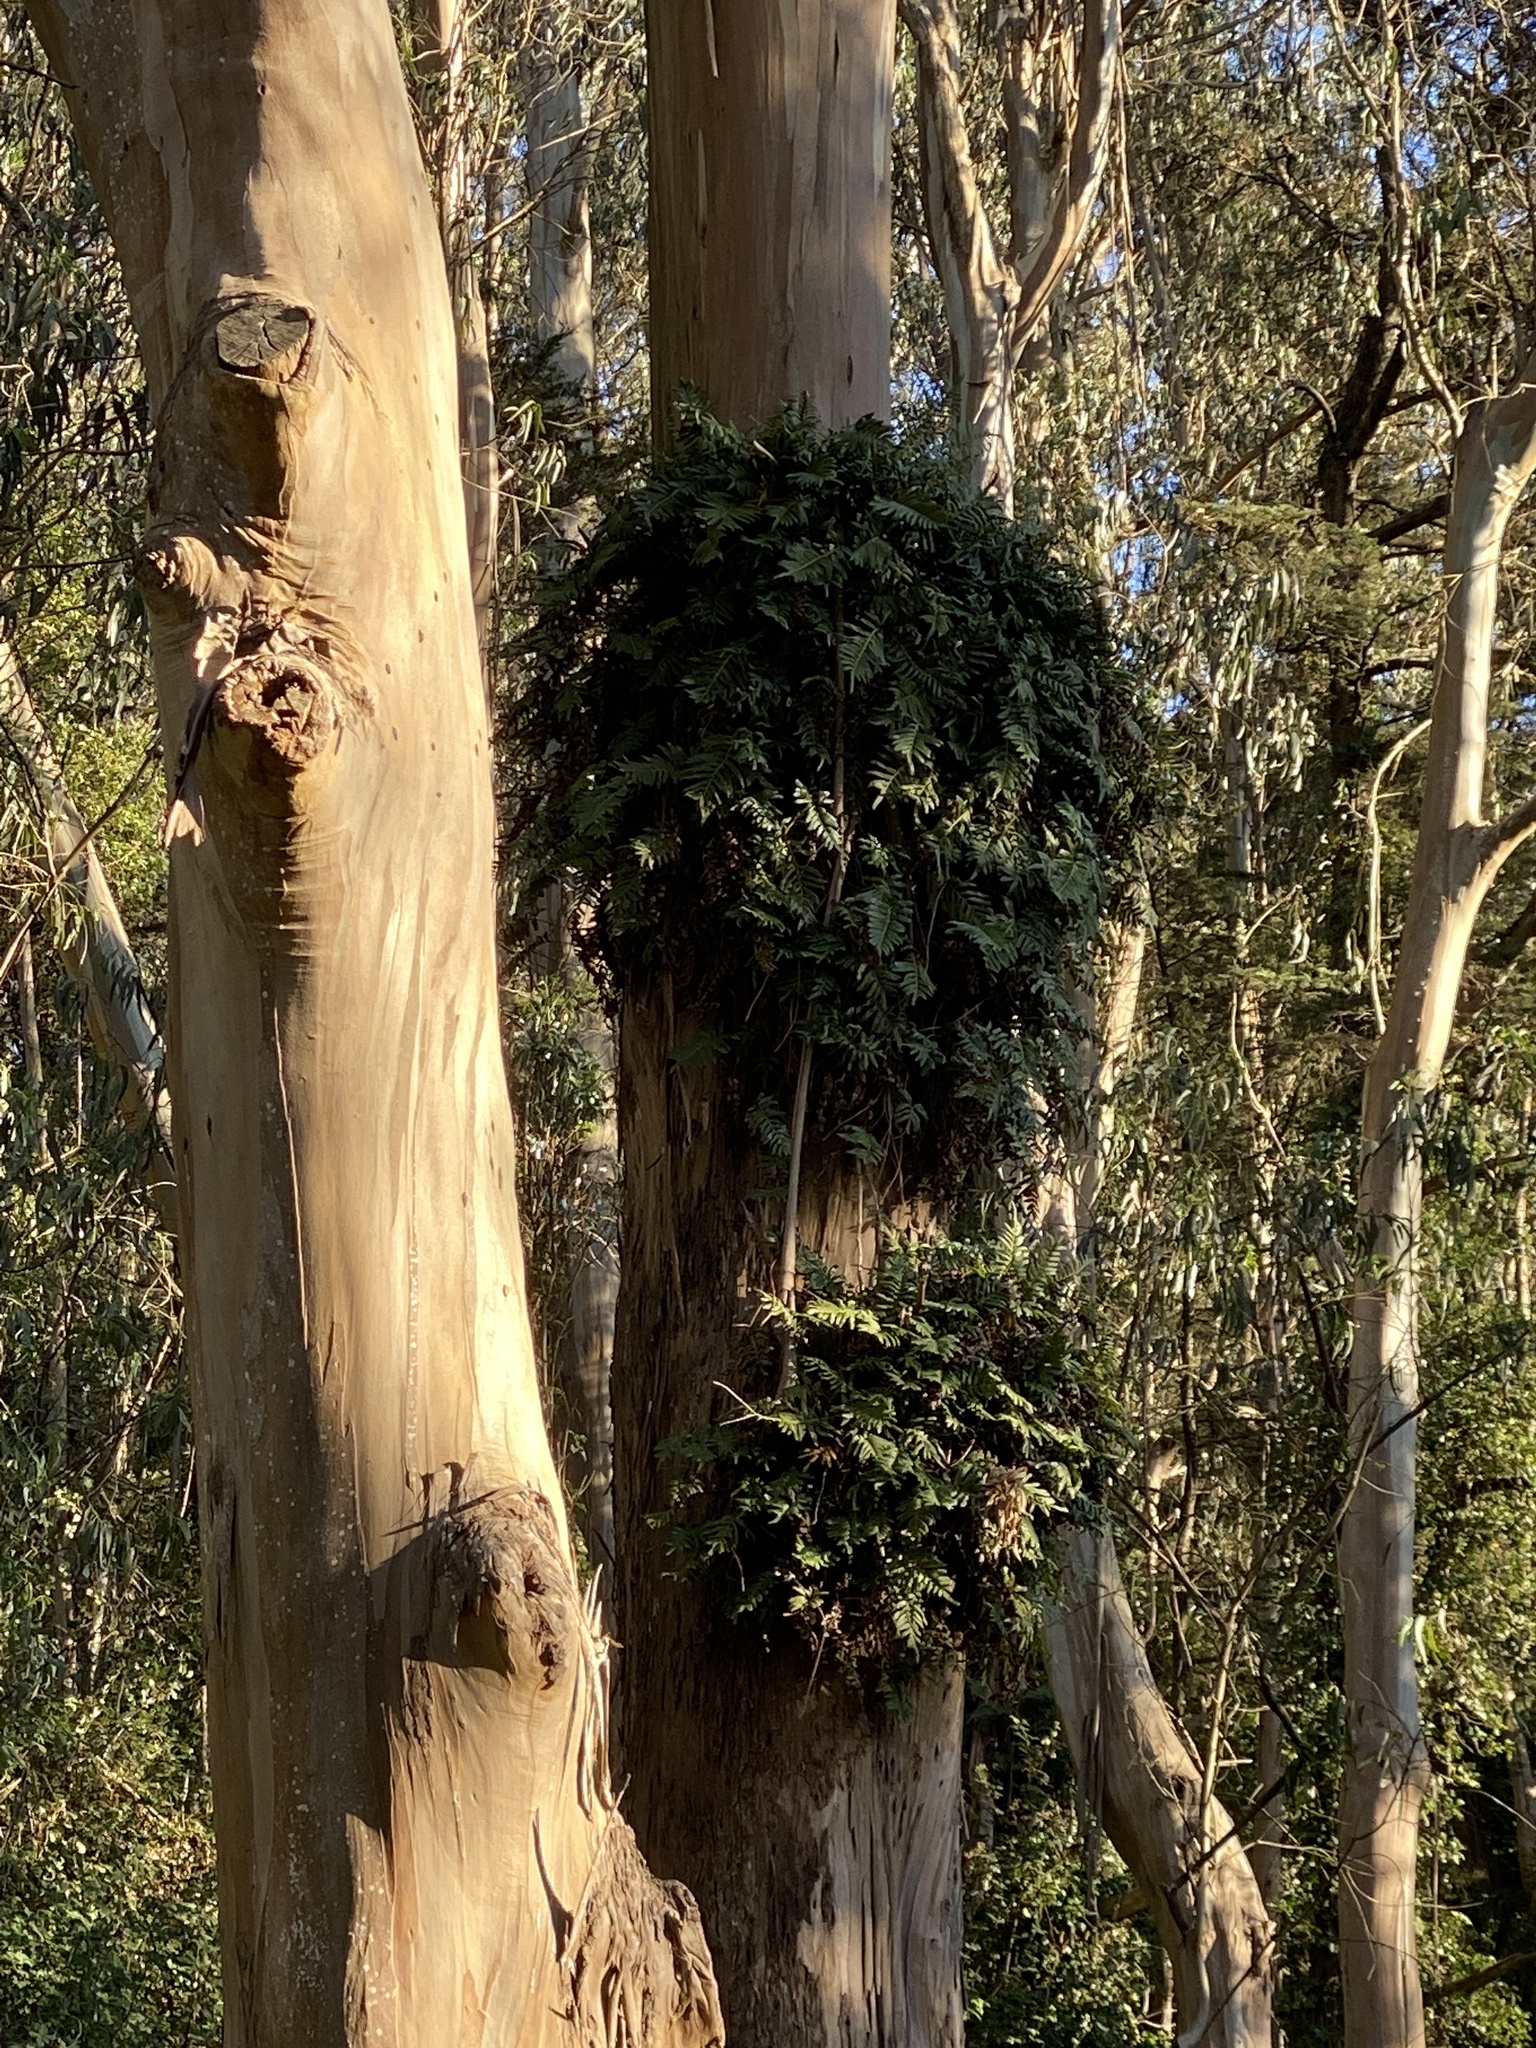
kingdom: Plantae
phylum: Tracheophyta
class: Polypodiopsida
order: Polypodiales
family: Polypodiaceae
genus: Polypodium
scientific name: Polypodium scouleri
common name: Scouler's polypody
